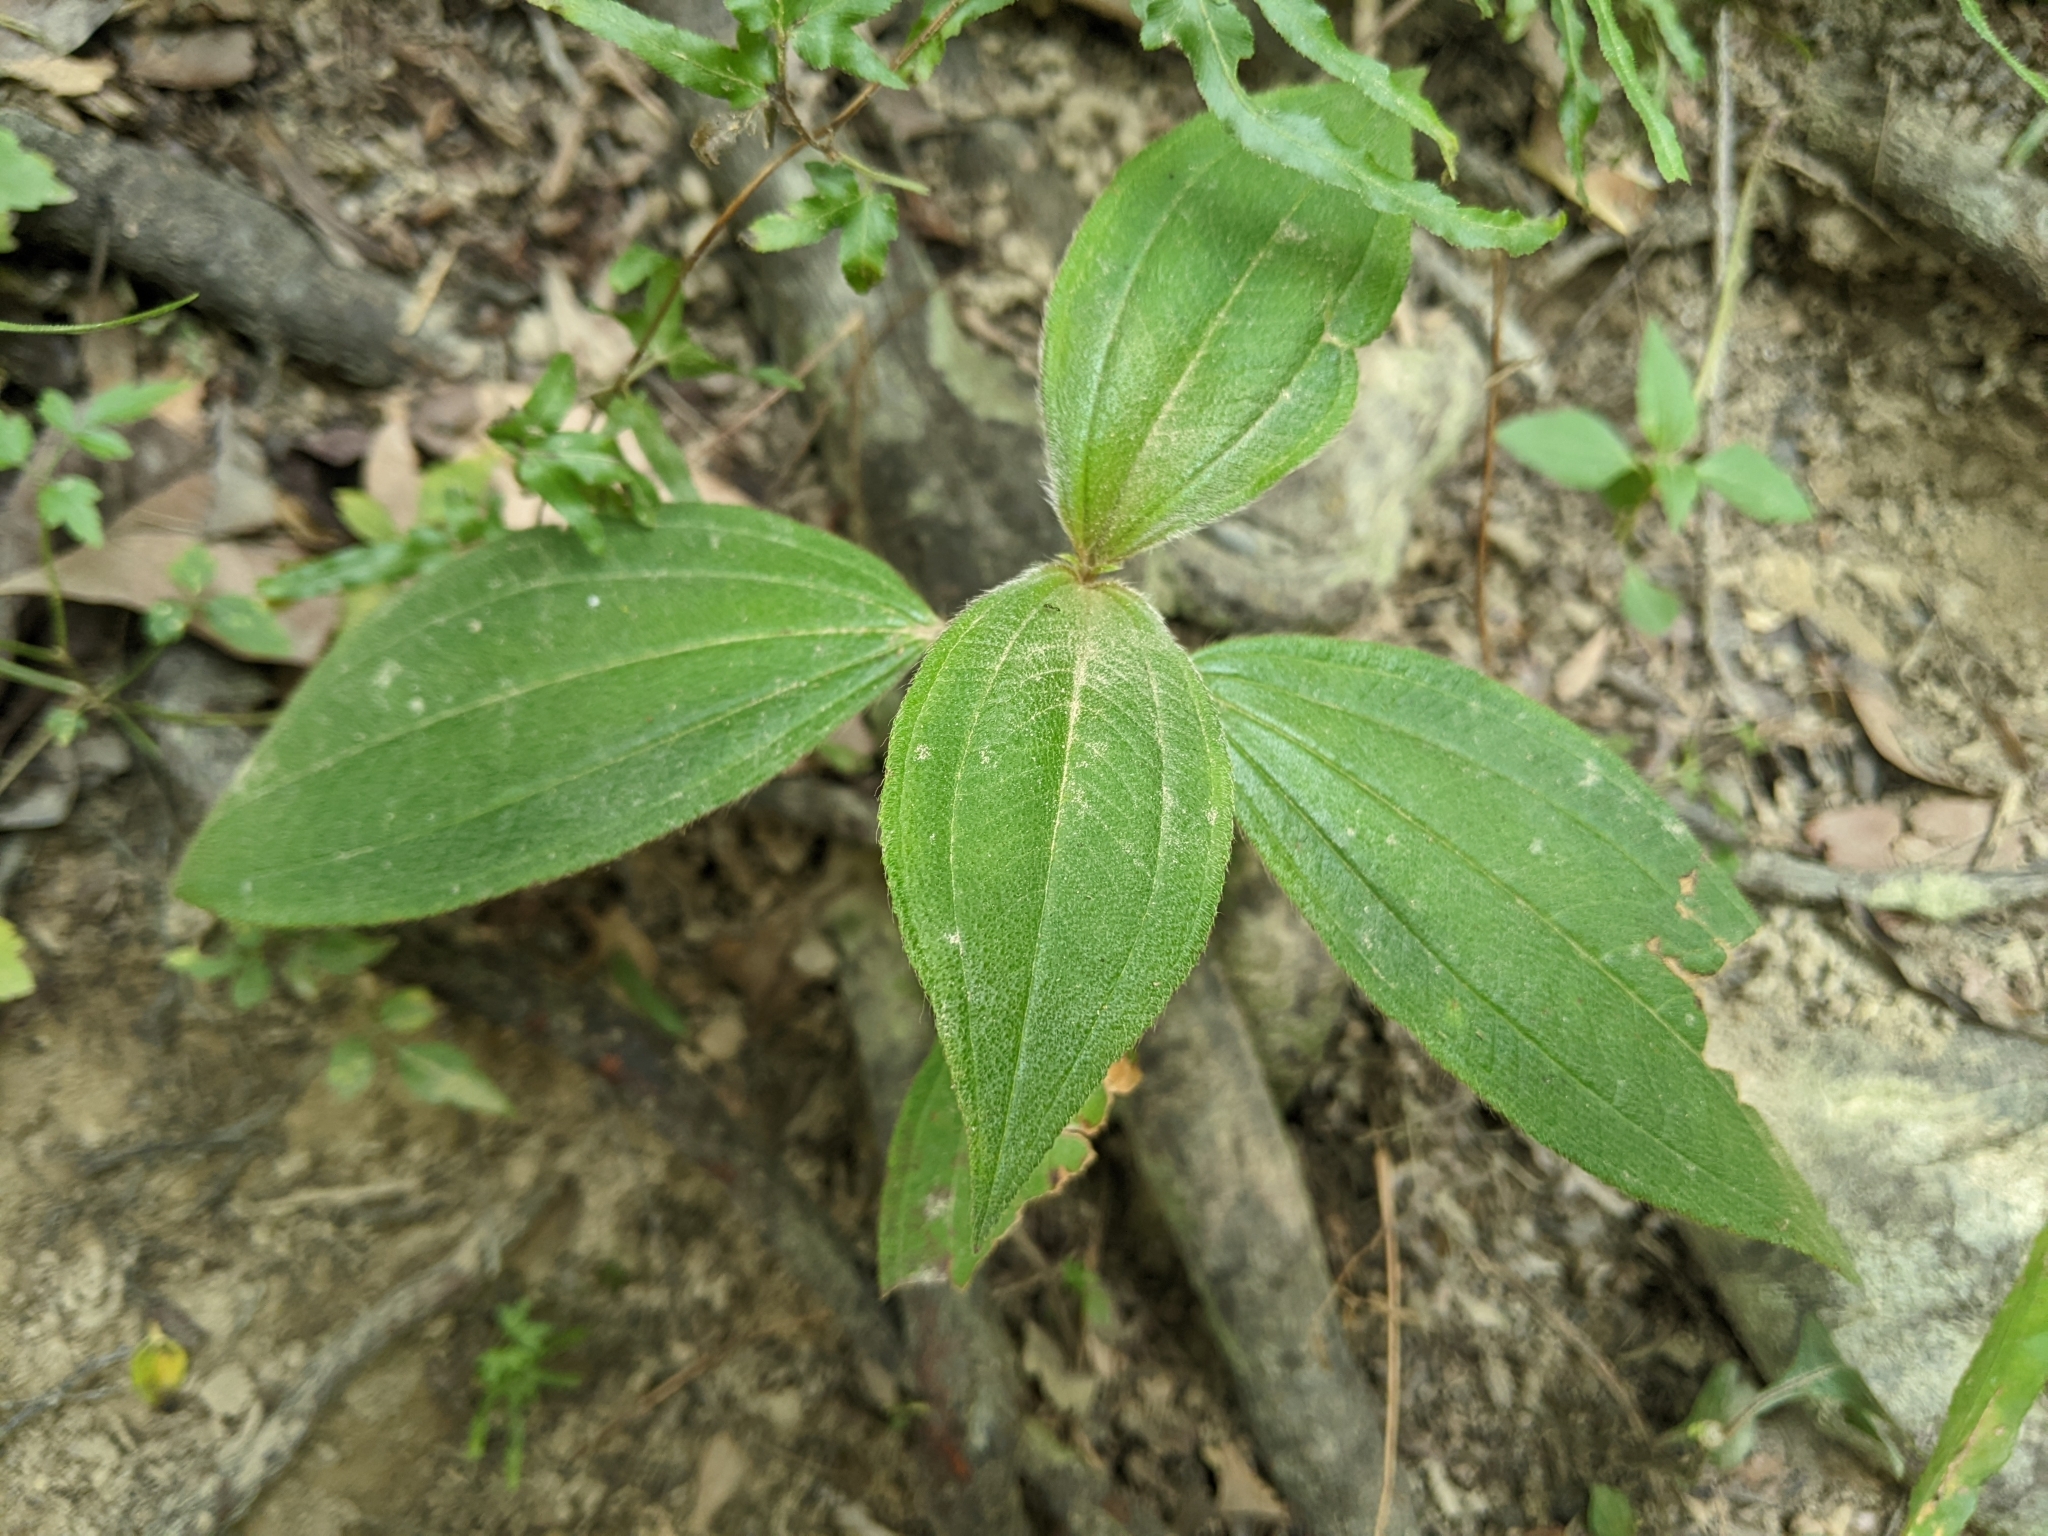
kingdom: Plantae
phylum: Tracheophyta
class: Magnoliopsida
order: Myrtales
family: Melastomataceae
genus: Melastoma
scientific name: Melastoma malabathricum
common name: Indian-rhododendron
